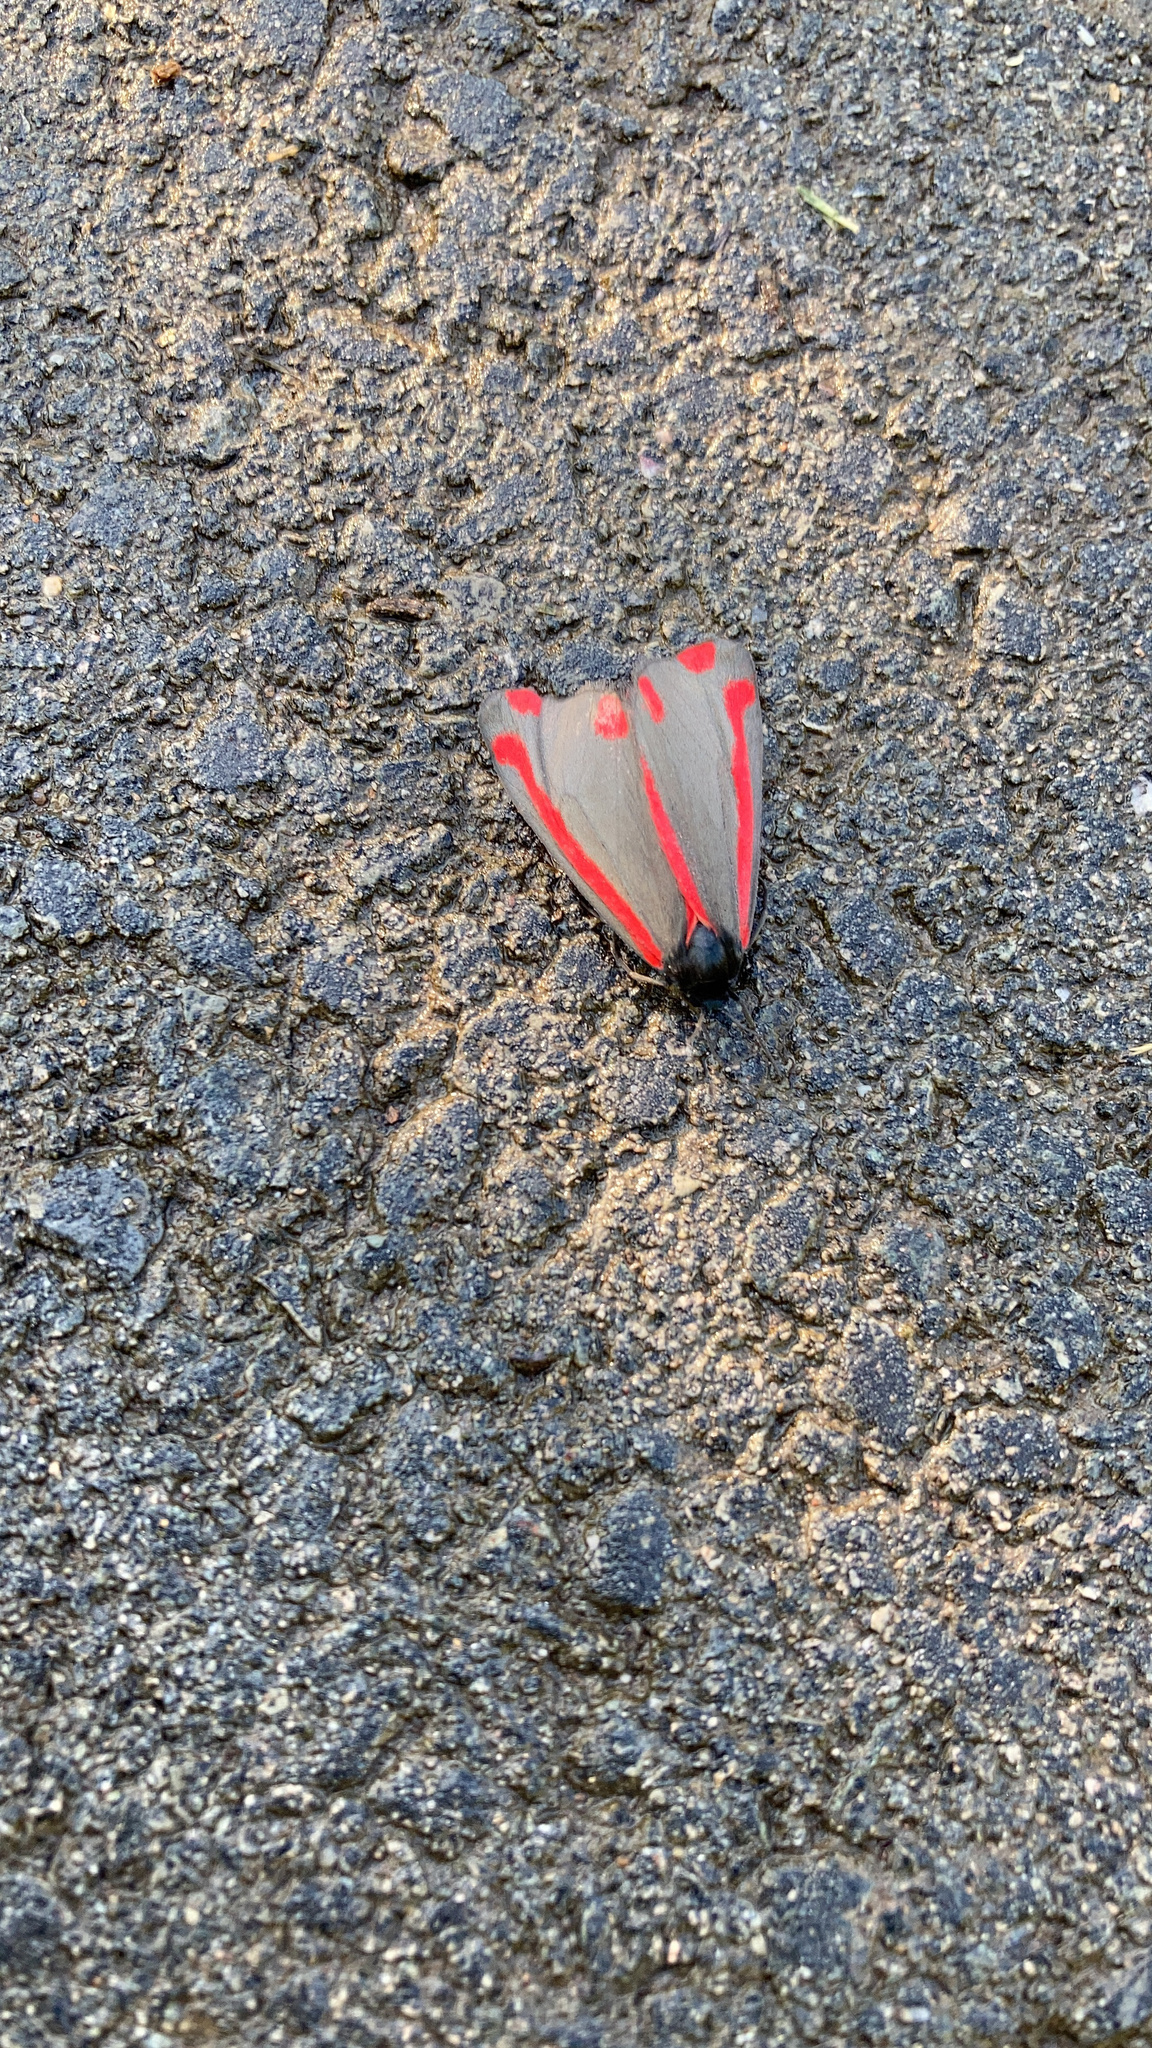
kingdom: Animalia
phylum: Arthropoda
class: Insecta
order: Lepidoptera
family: Erebidae
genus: Tyria
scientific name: Tyria jacobaeae
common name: Cinnabar
